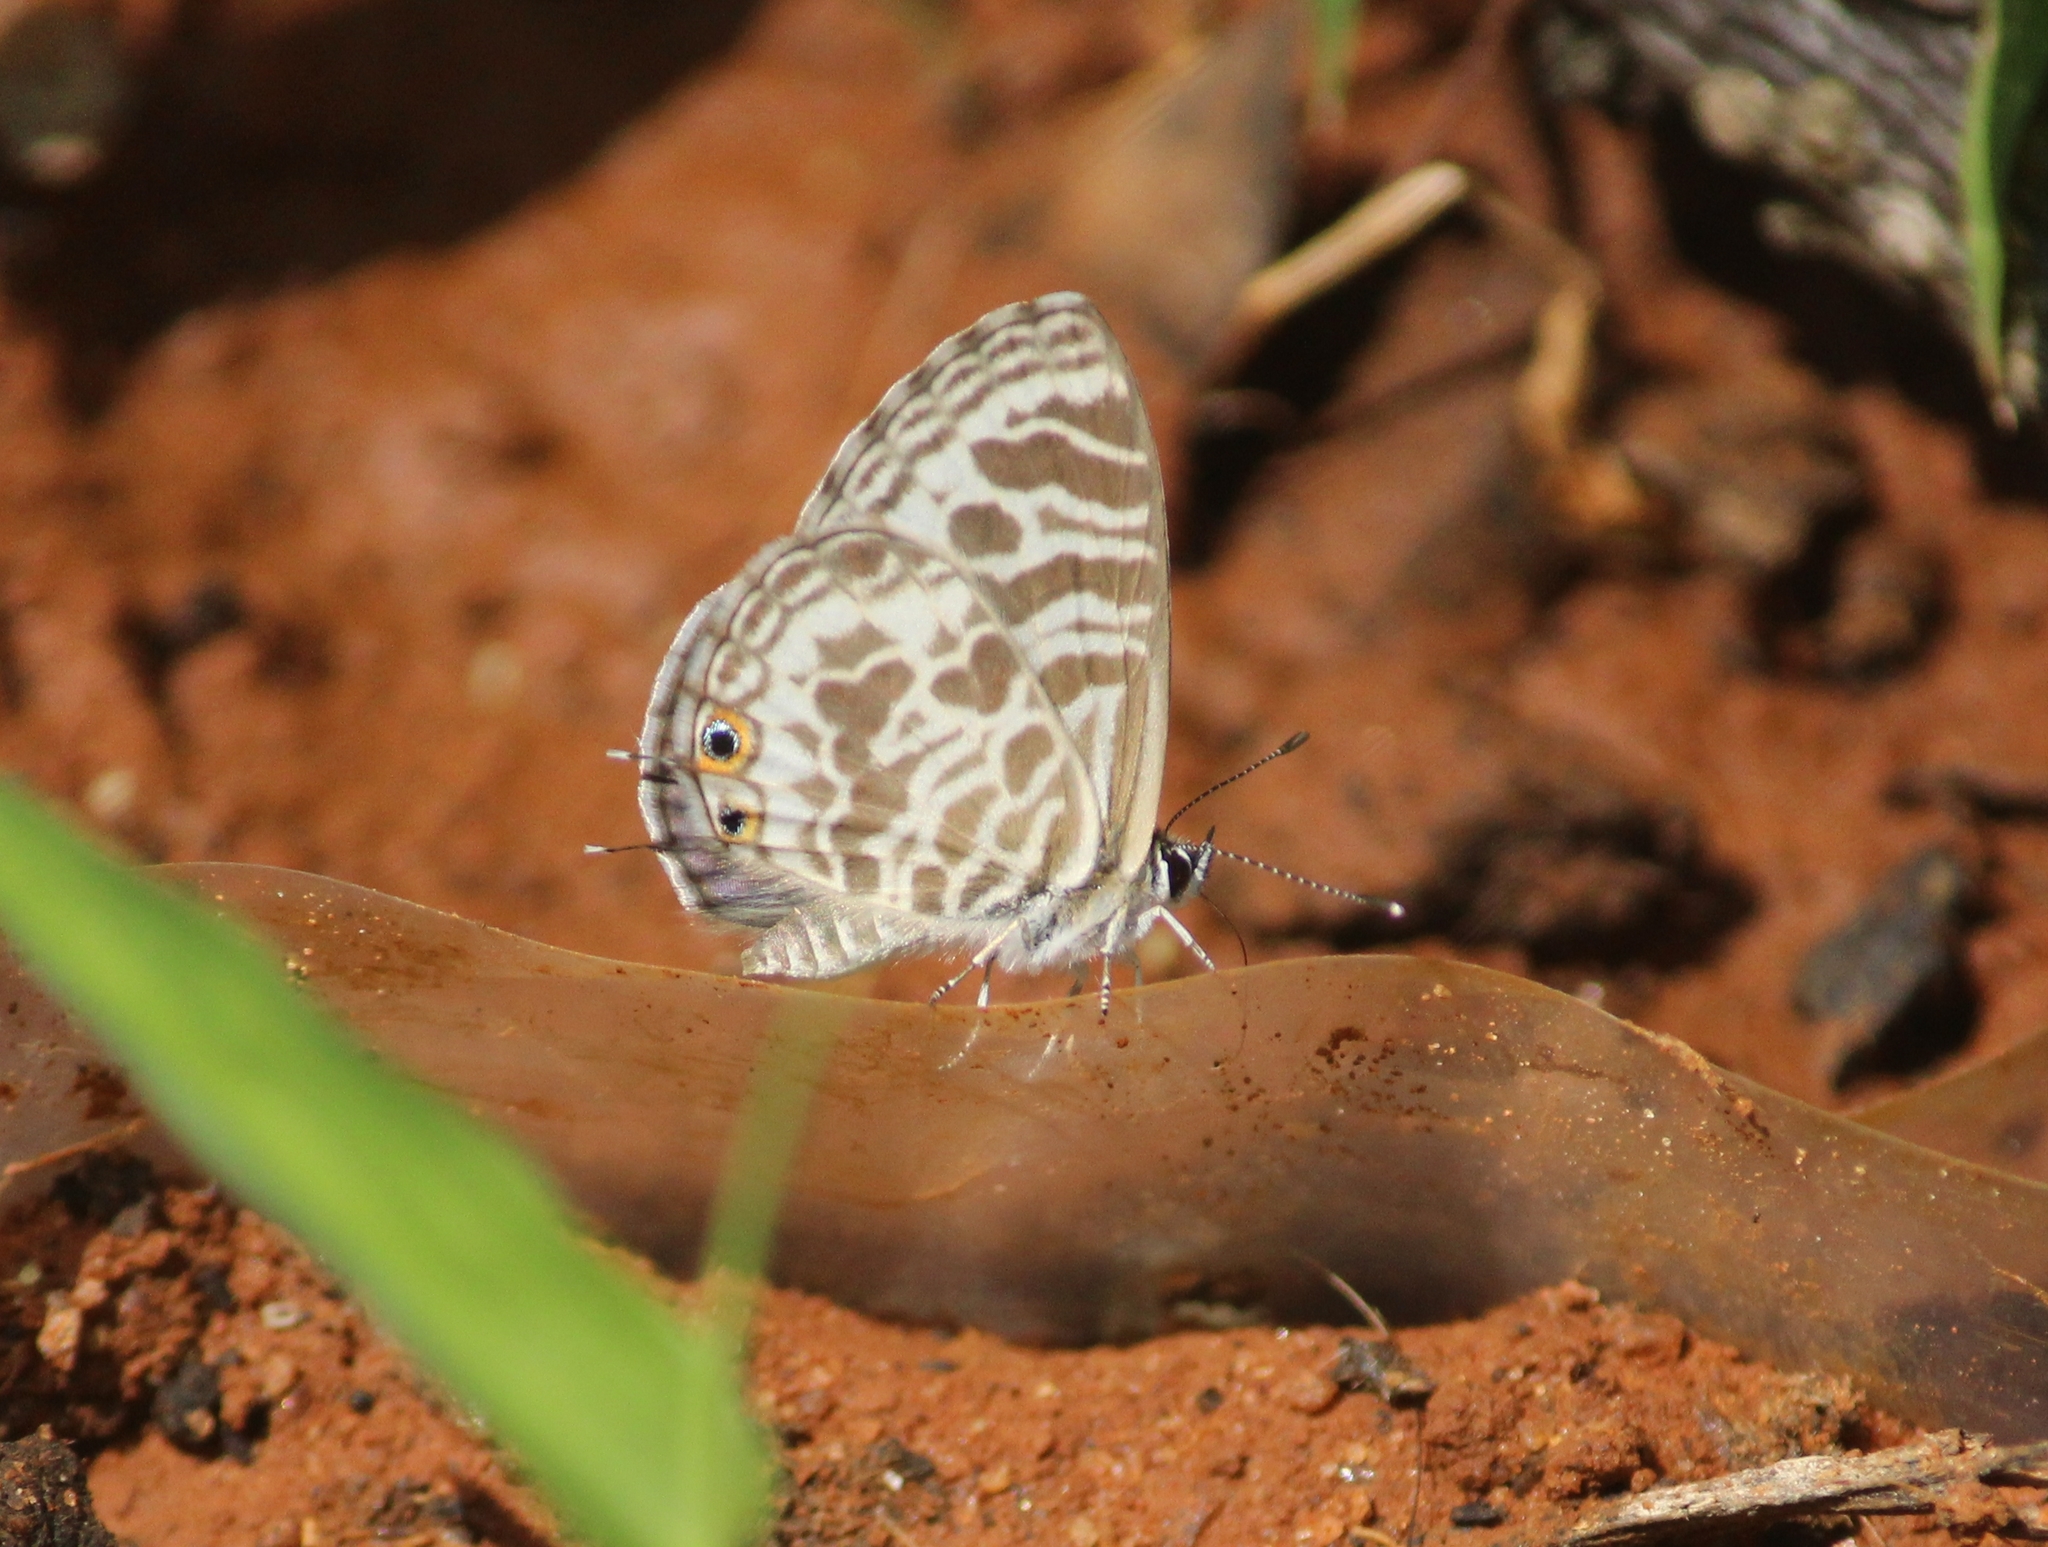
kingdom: Animalia
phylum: Arthropoda
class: Insecta
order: Lepidoptera
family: Lycaenidae
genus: Leptotes
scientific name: Leptotes plinius
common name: Zebra blue
